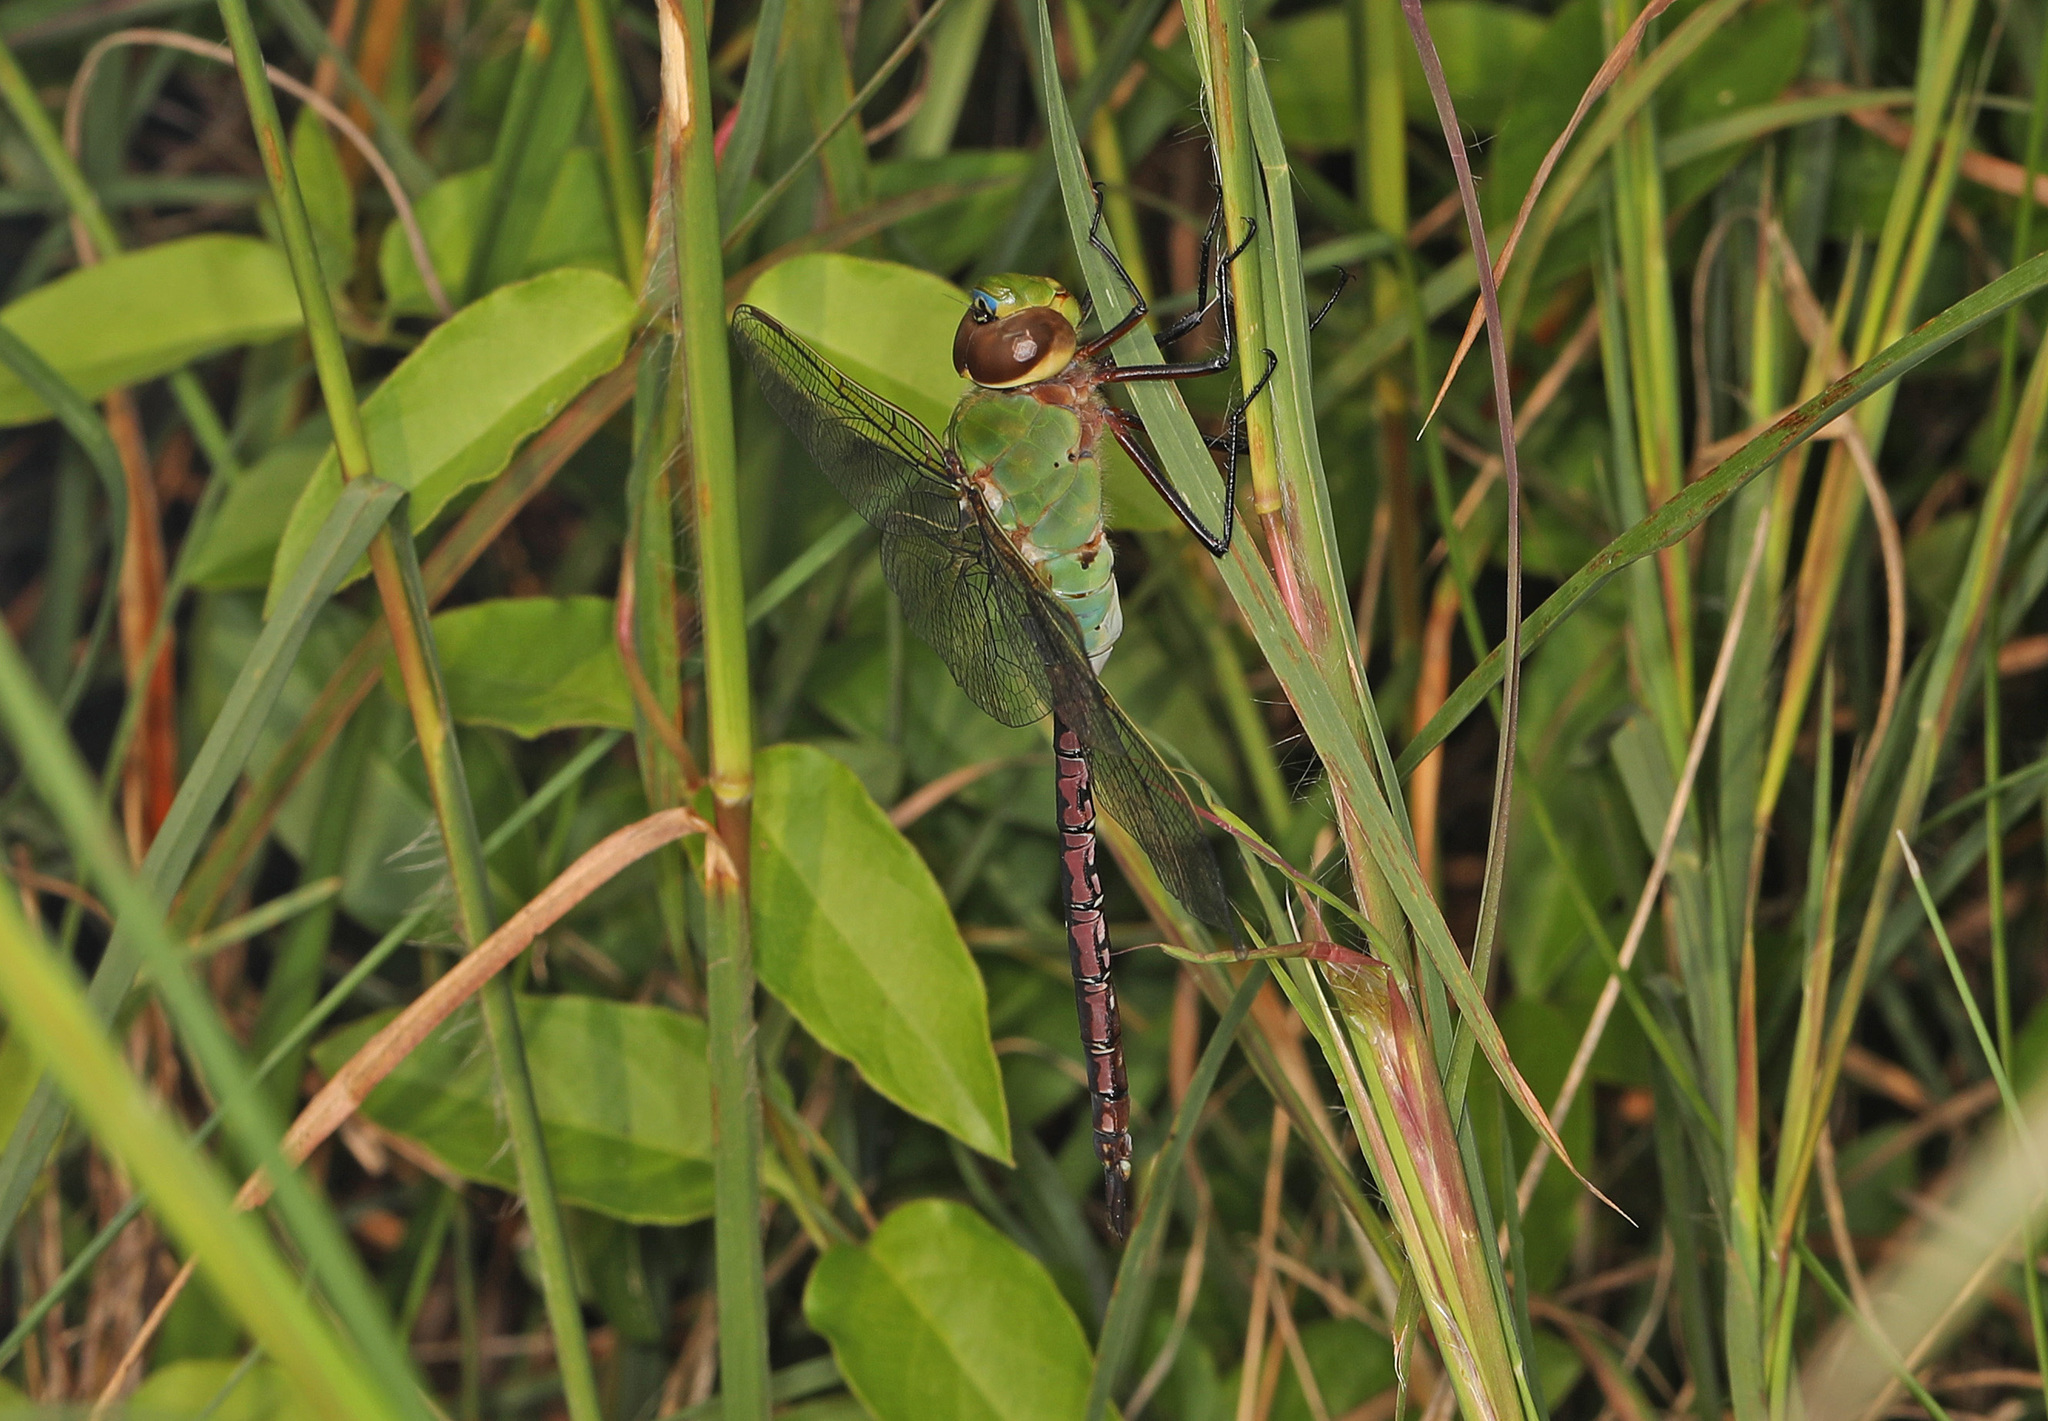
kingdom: Animalia
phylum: Arthropoda
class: Insecta
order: Odonata
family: Aeshnidae
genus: Anax
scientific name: Anax junius
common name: Common green darner
